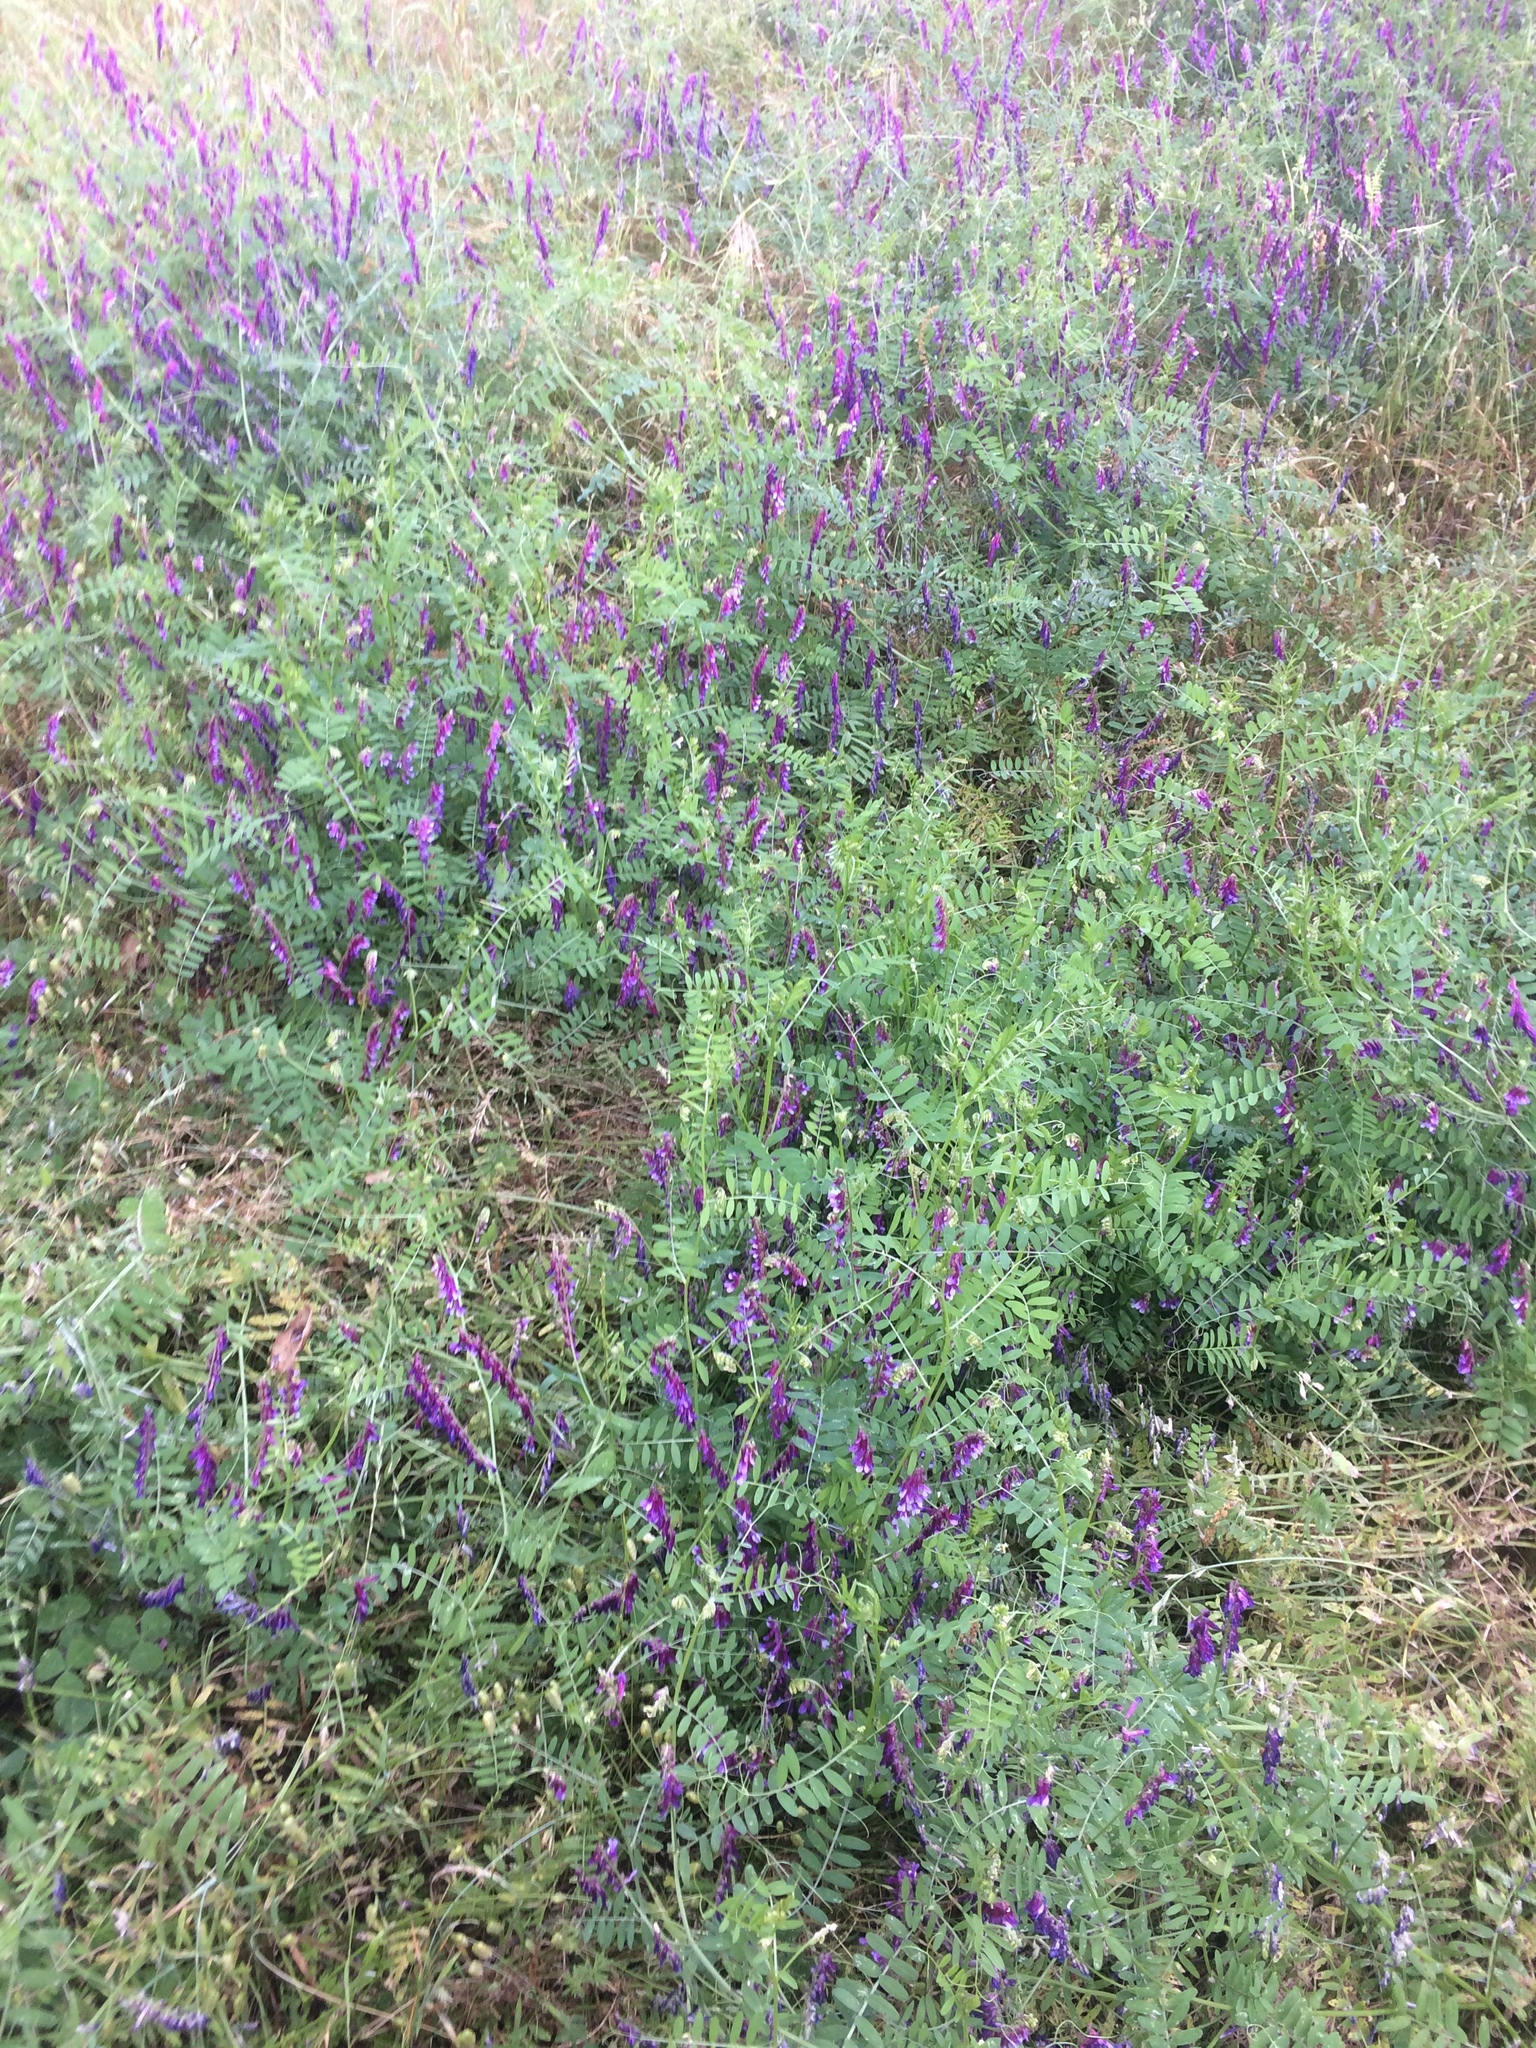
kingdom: Plantae
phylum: Tracheophyta
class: Magnoliopsida
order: Fabales
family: Fabaceae
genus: Vicia
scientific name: Vicia villosa
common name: Fodder vetch
